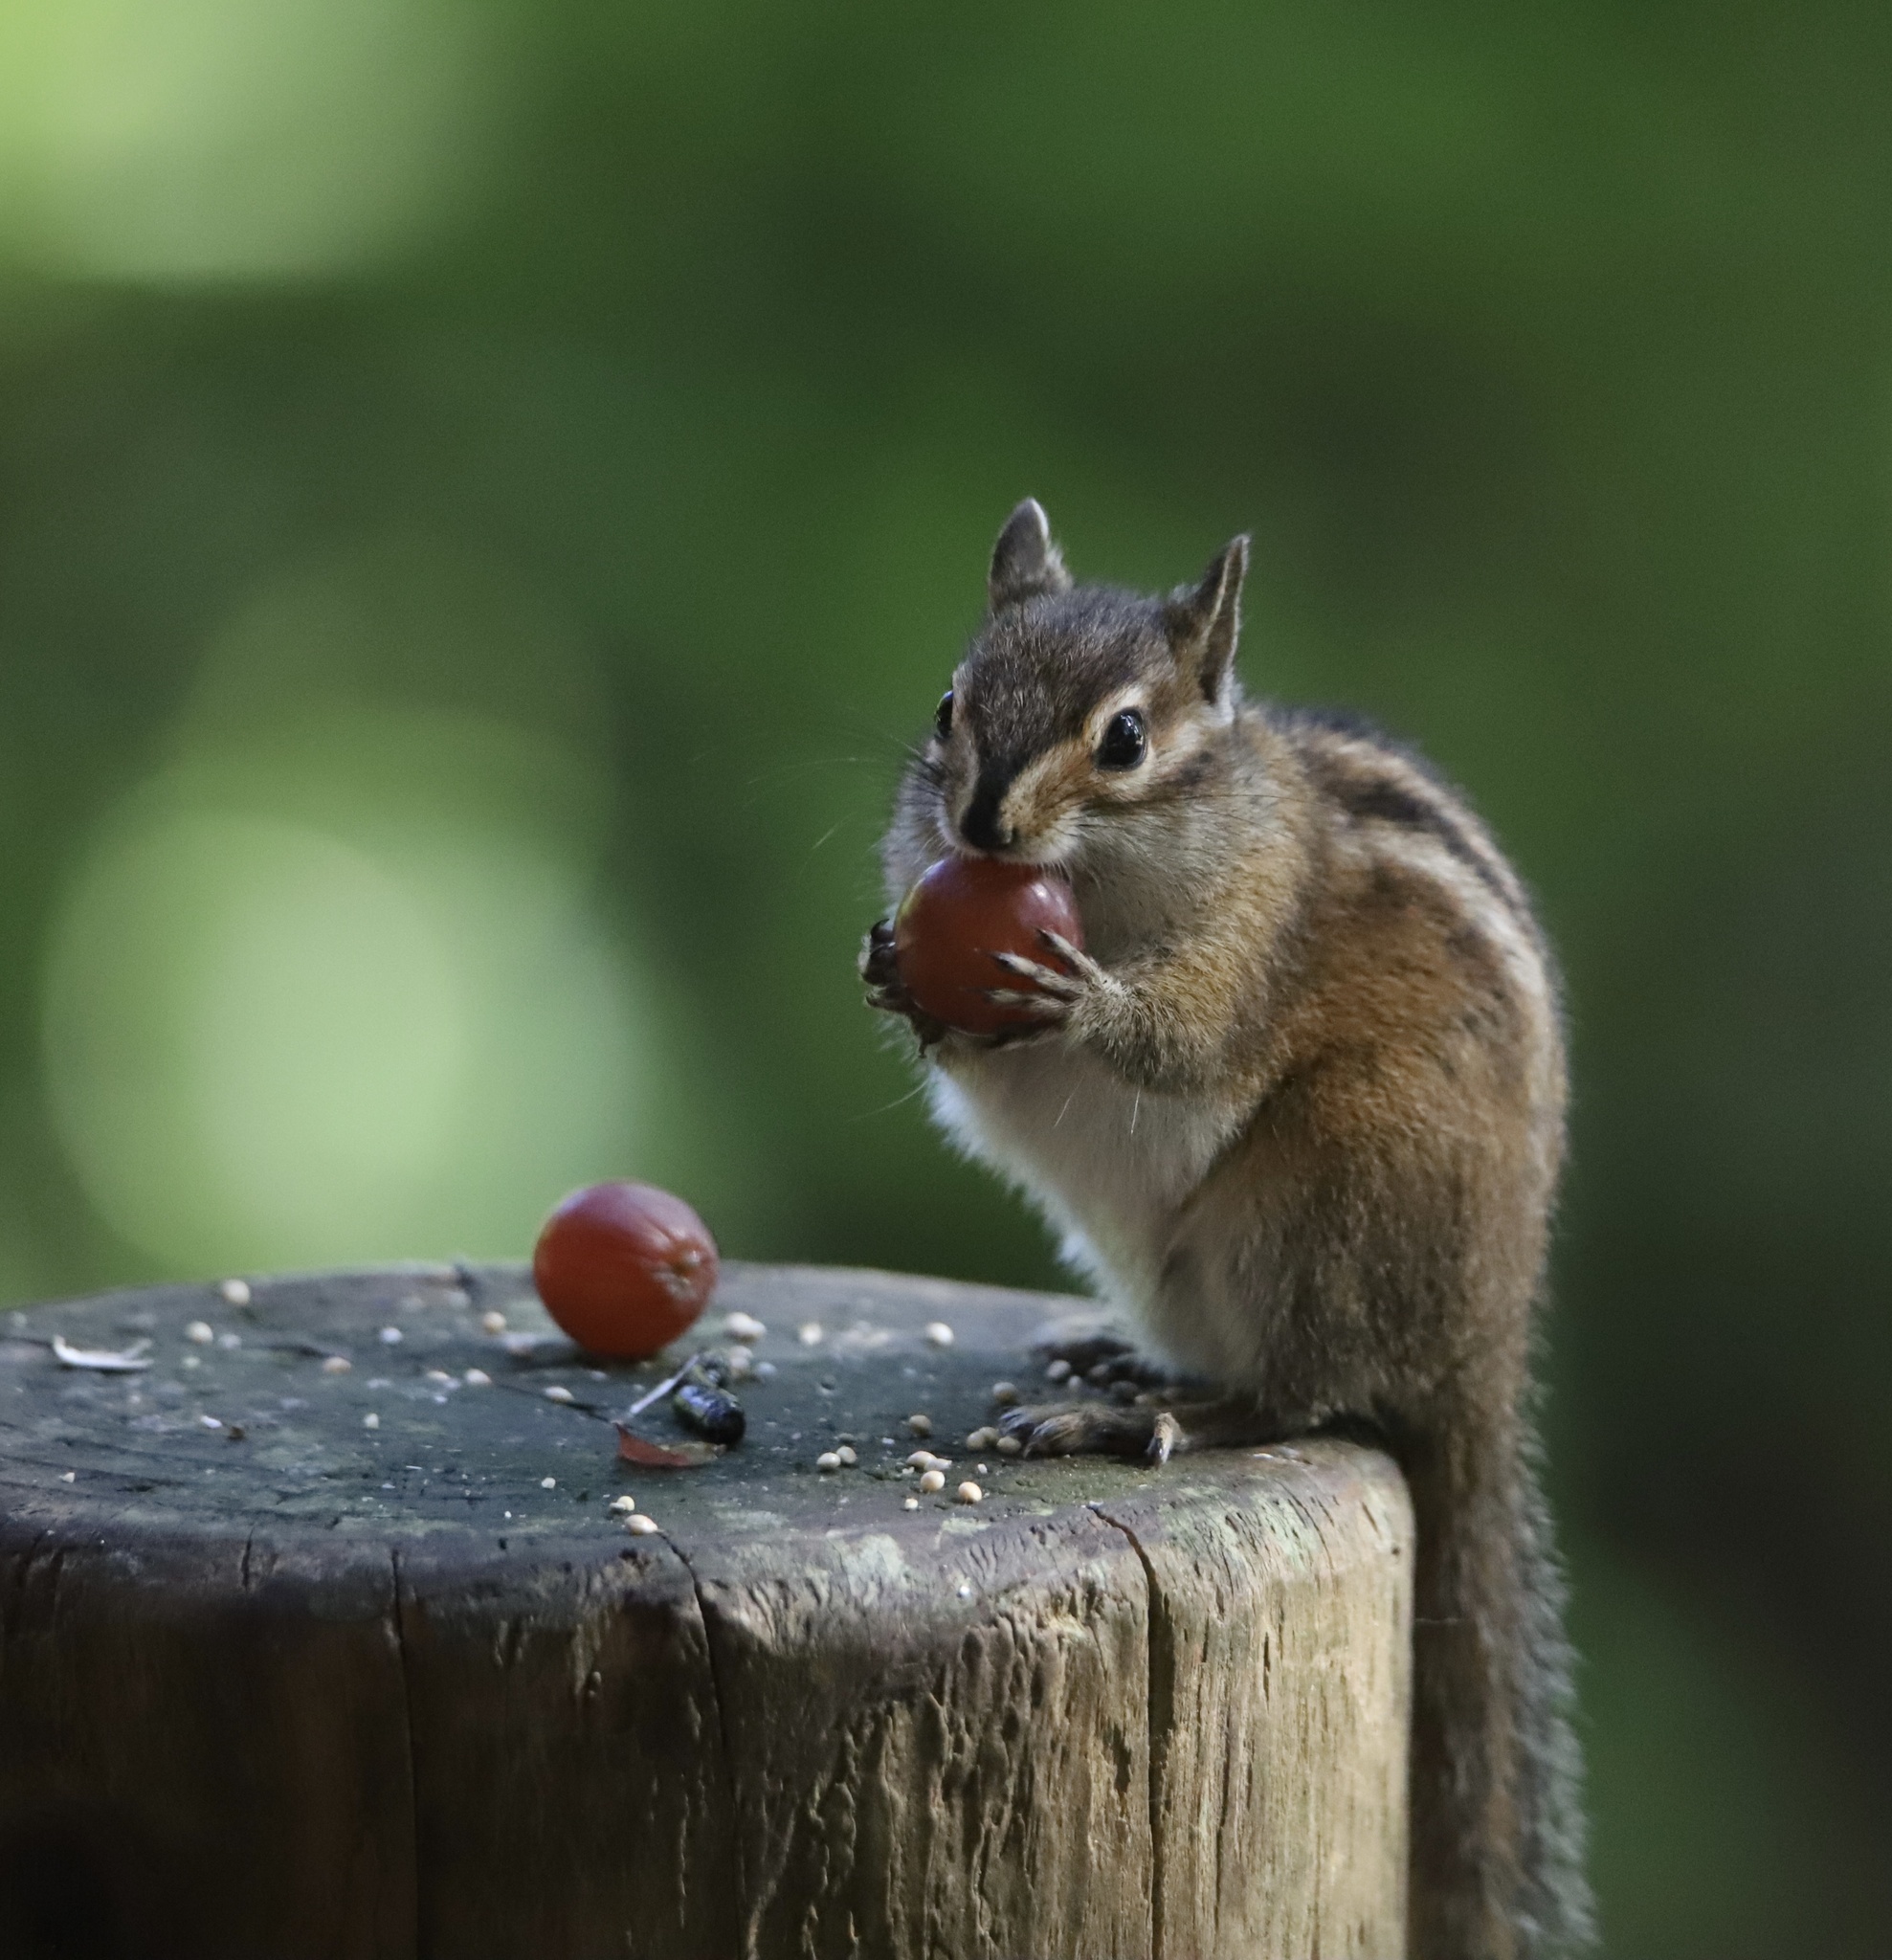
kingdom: Animalia
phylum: Chordata
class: Mammalia
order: Rodentia
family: Sciuridae
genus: Tamias
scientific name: Tamias townsendii
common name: Townsend's chipmunk
